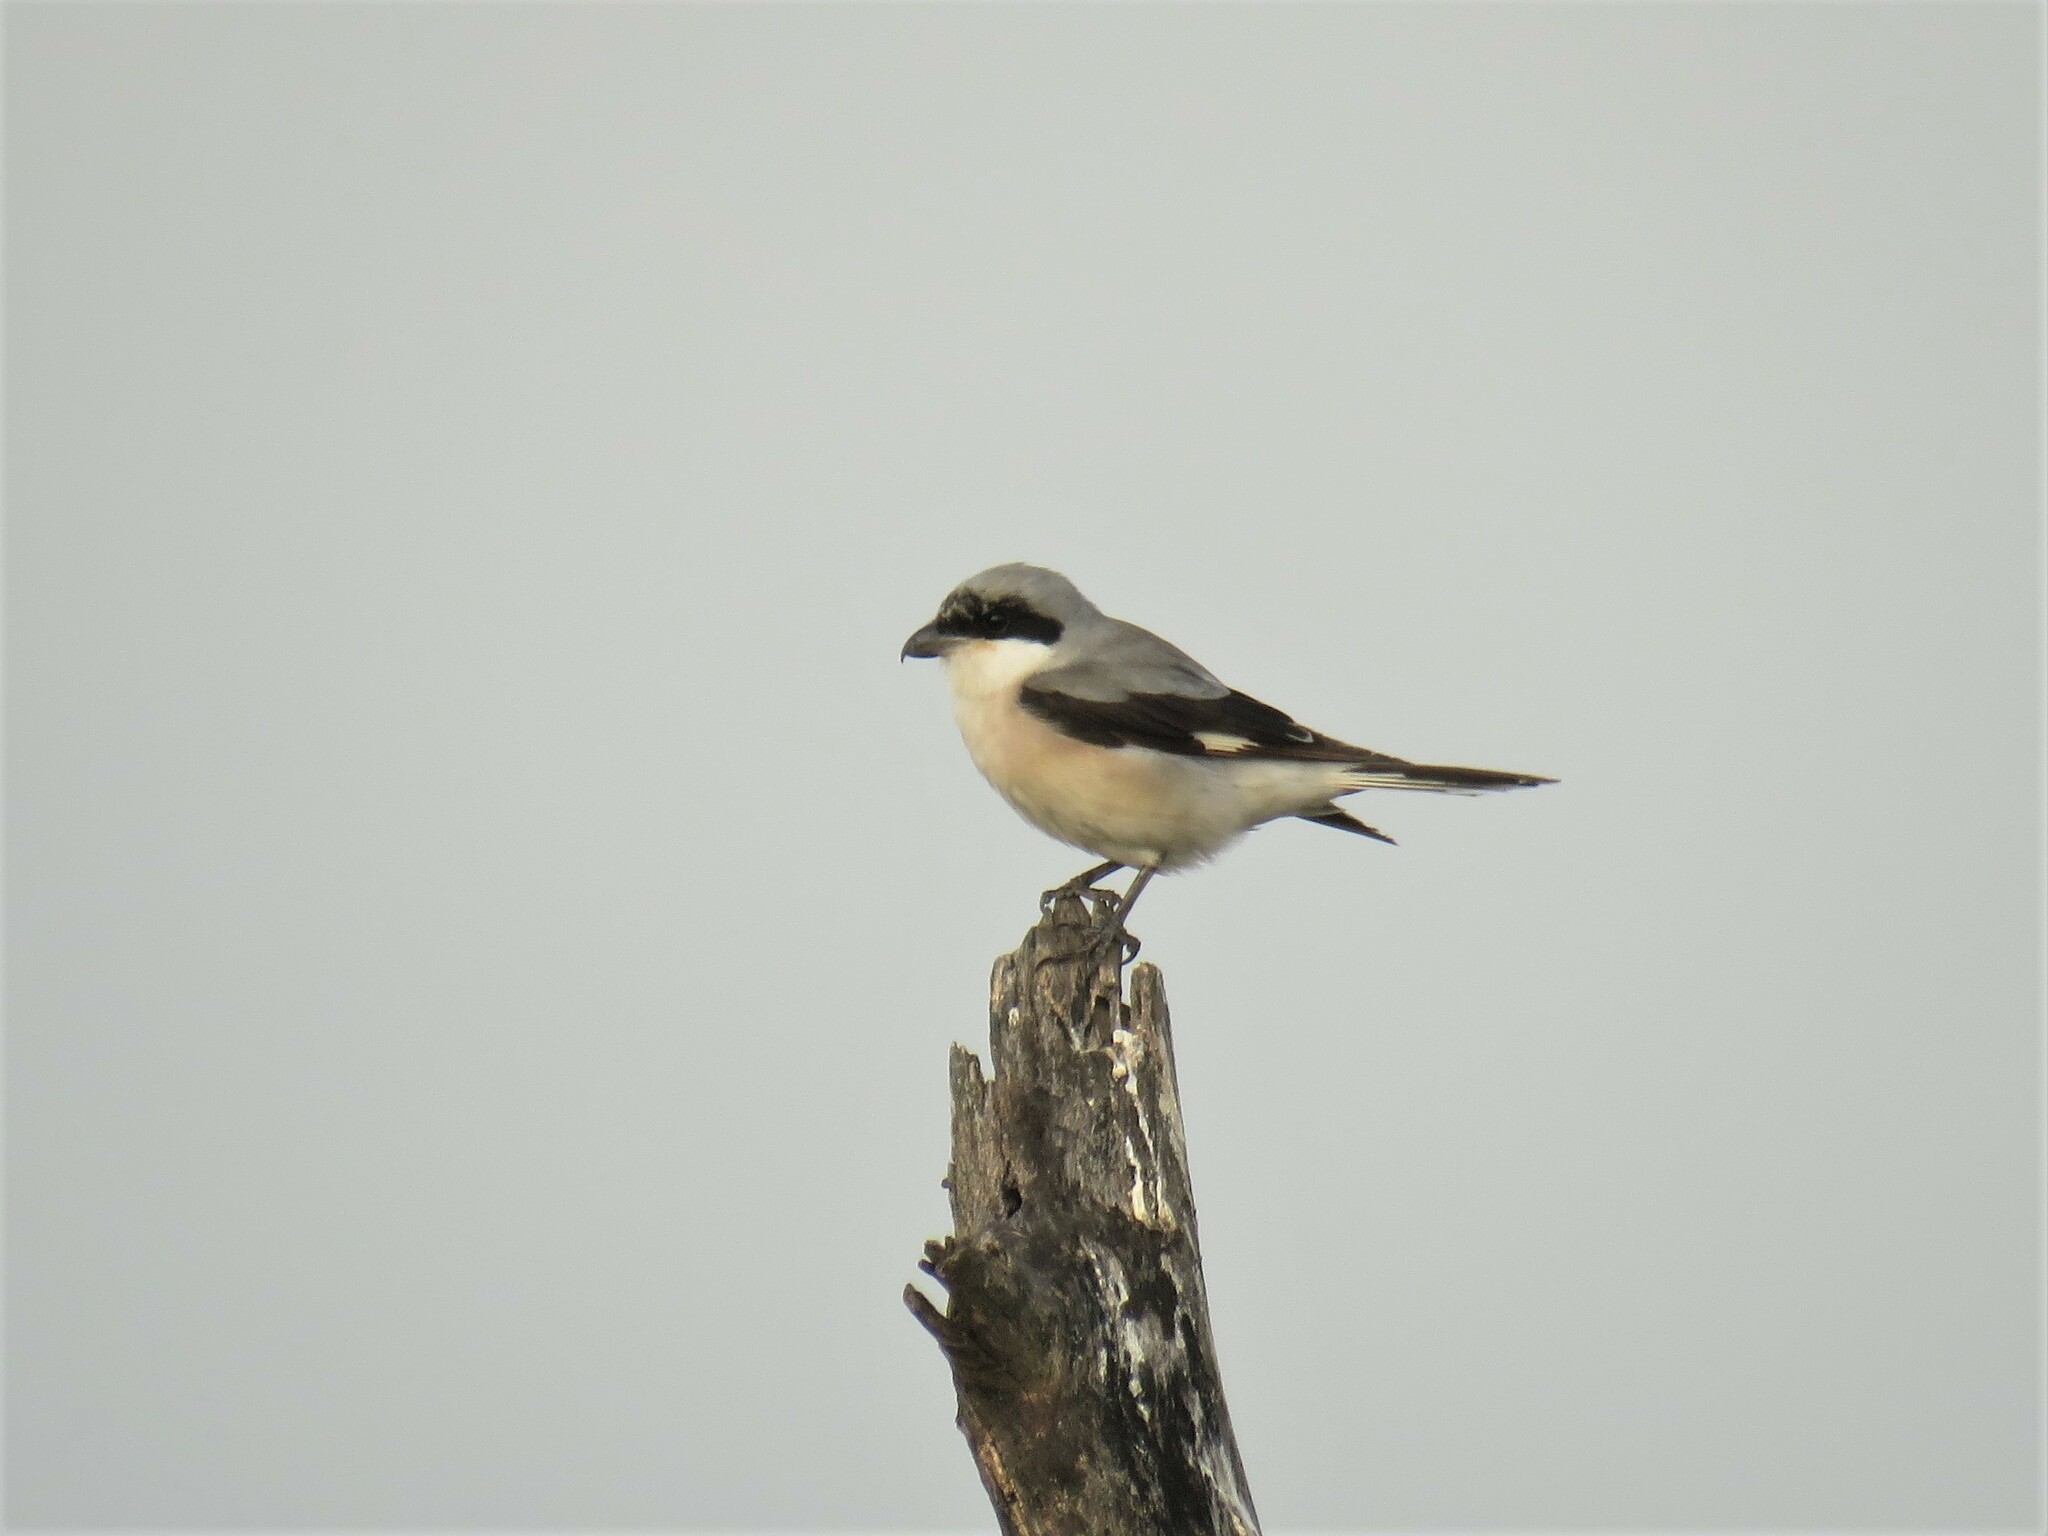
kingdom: Animalia
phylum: Chordata
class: Aves
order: Passeriformes
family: Laniidae
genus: Lanius
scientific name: Lanius minor
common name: Lesser grey shrike
